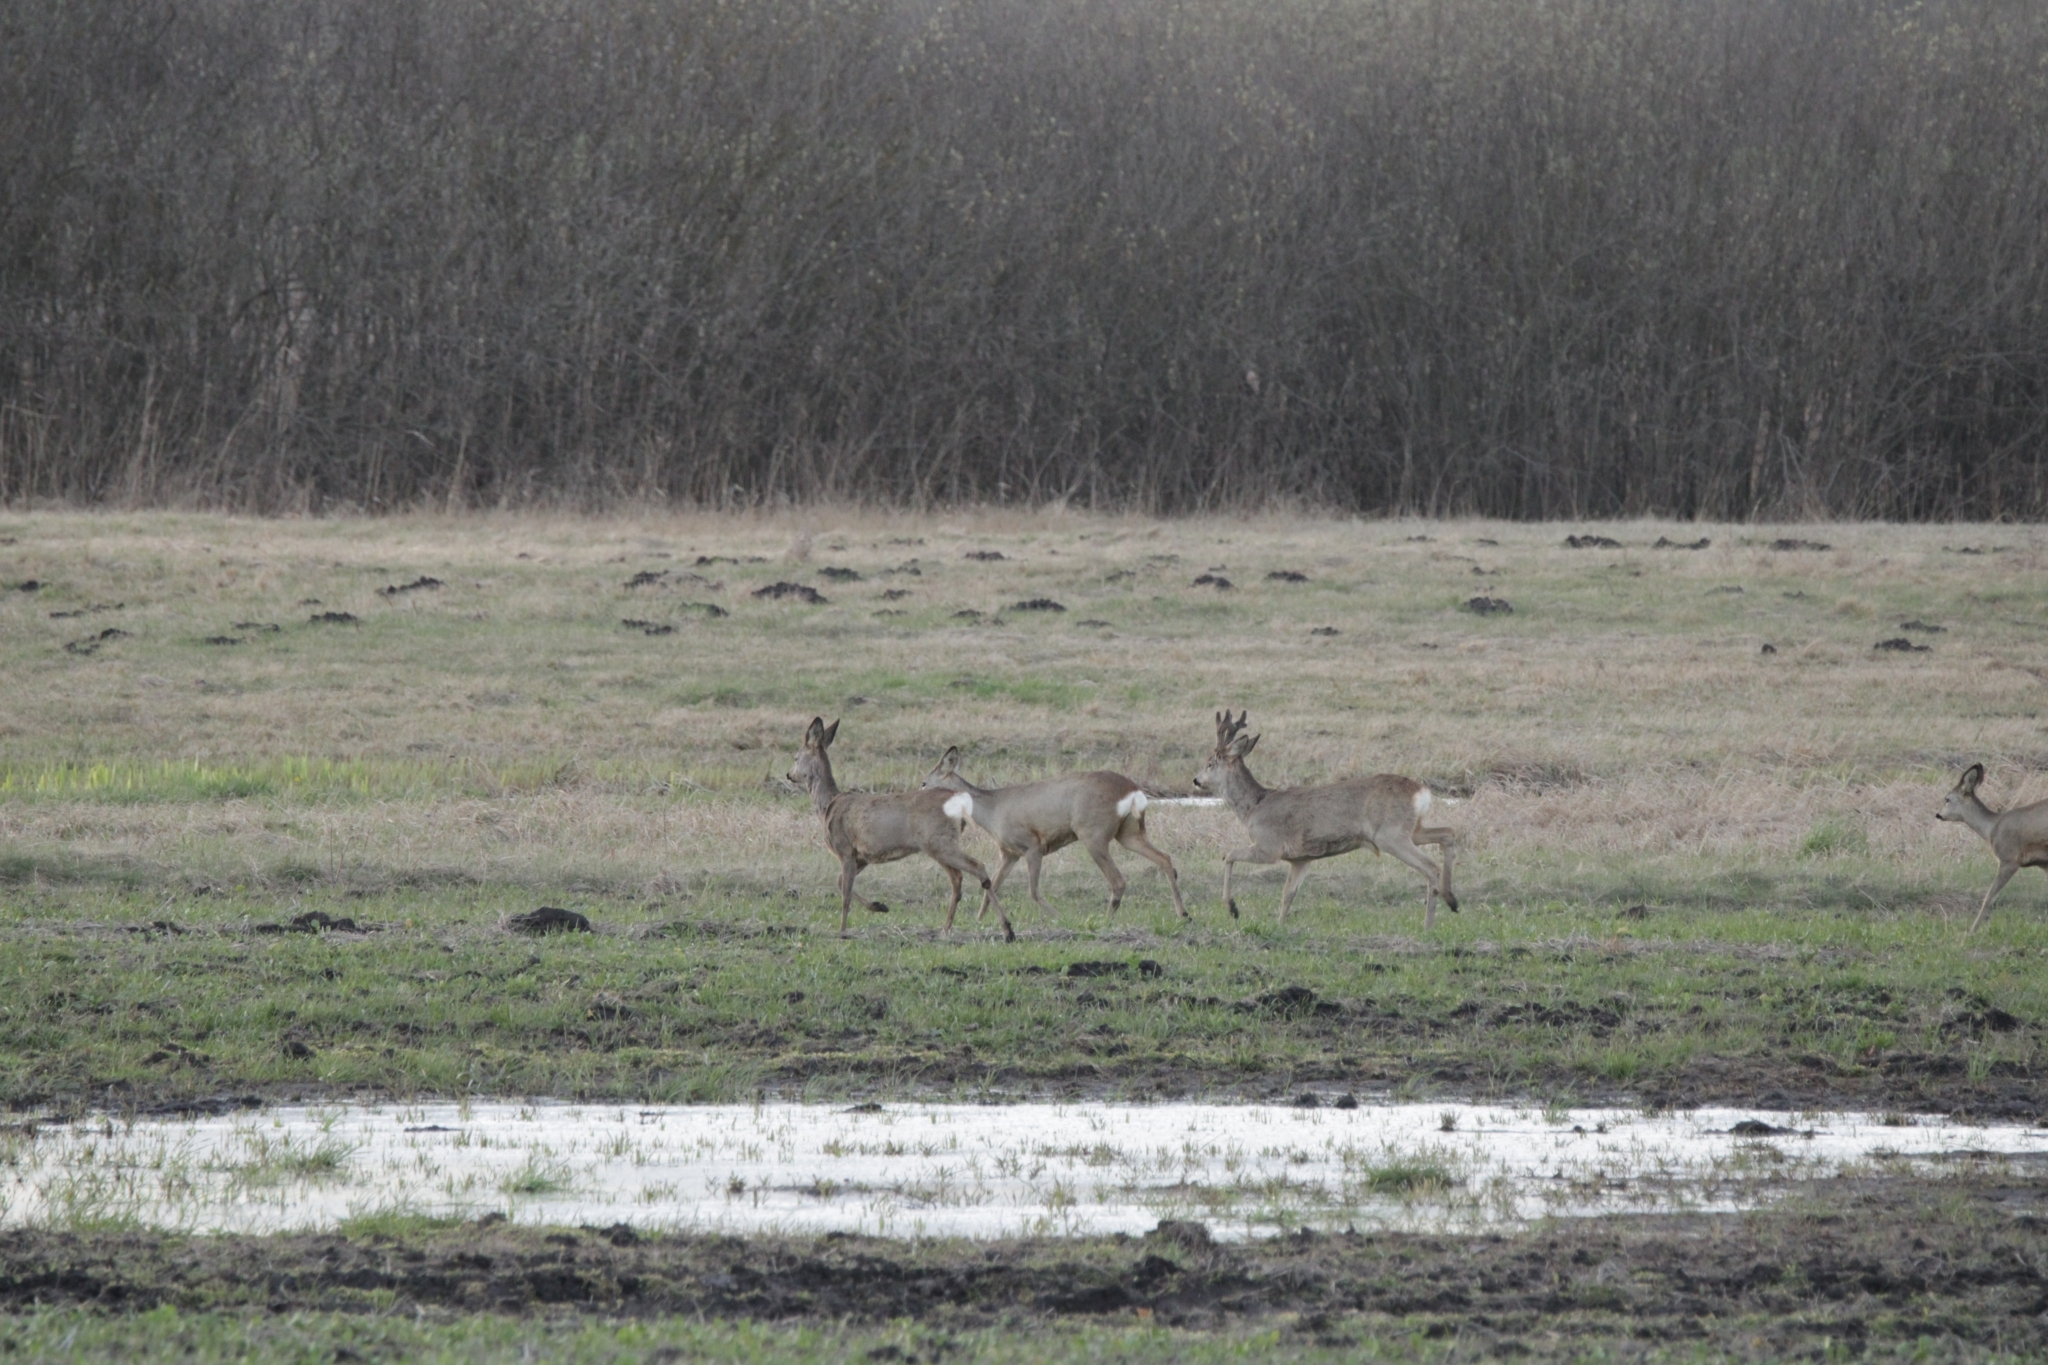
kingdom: Animalia
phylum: Chordata
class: Mammalia
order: Artiodactyla
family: Cervidae
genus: Capreolus
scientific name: Capreolus capreolus
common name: Western roe deer
